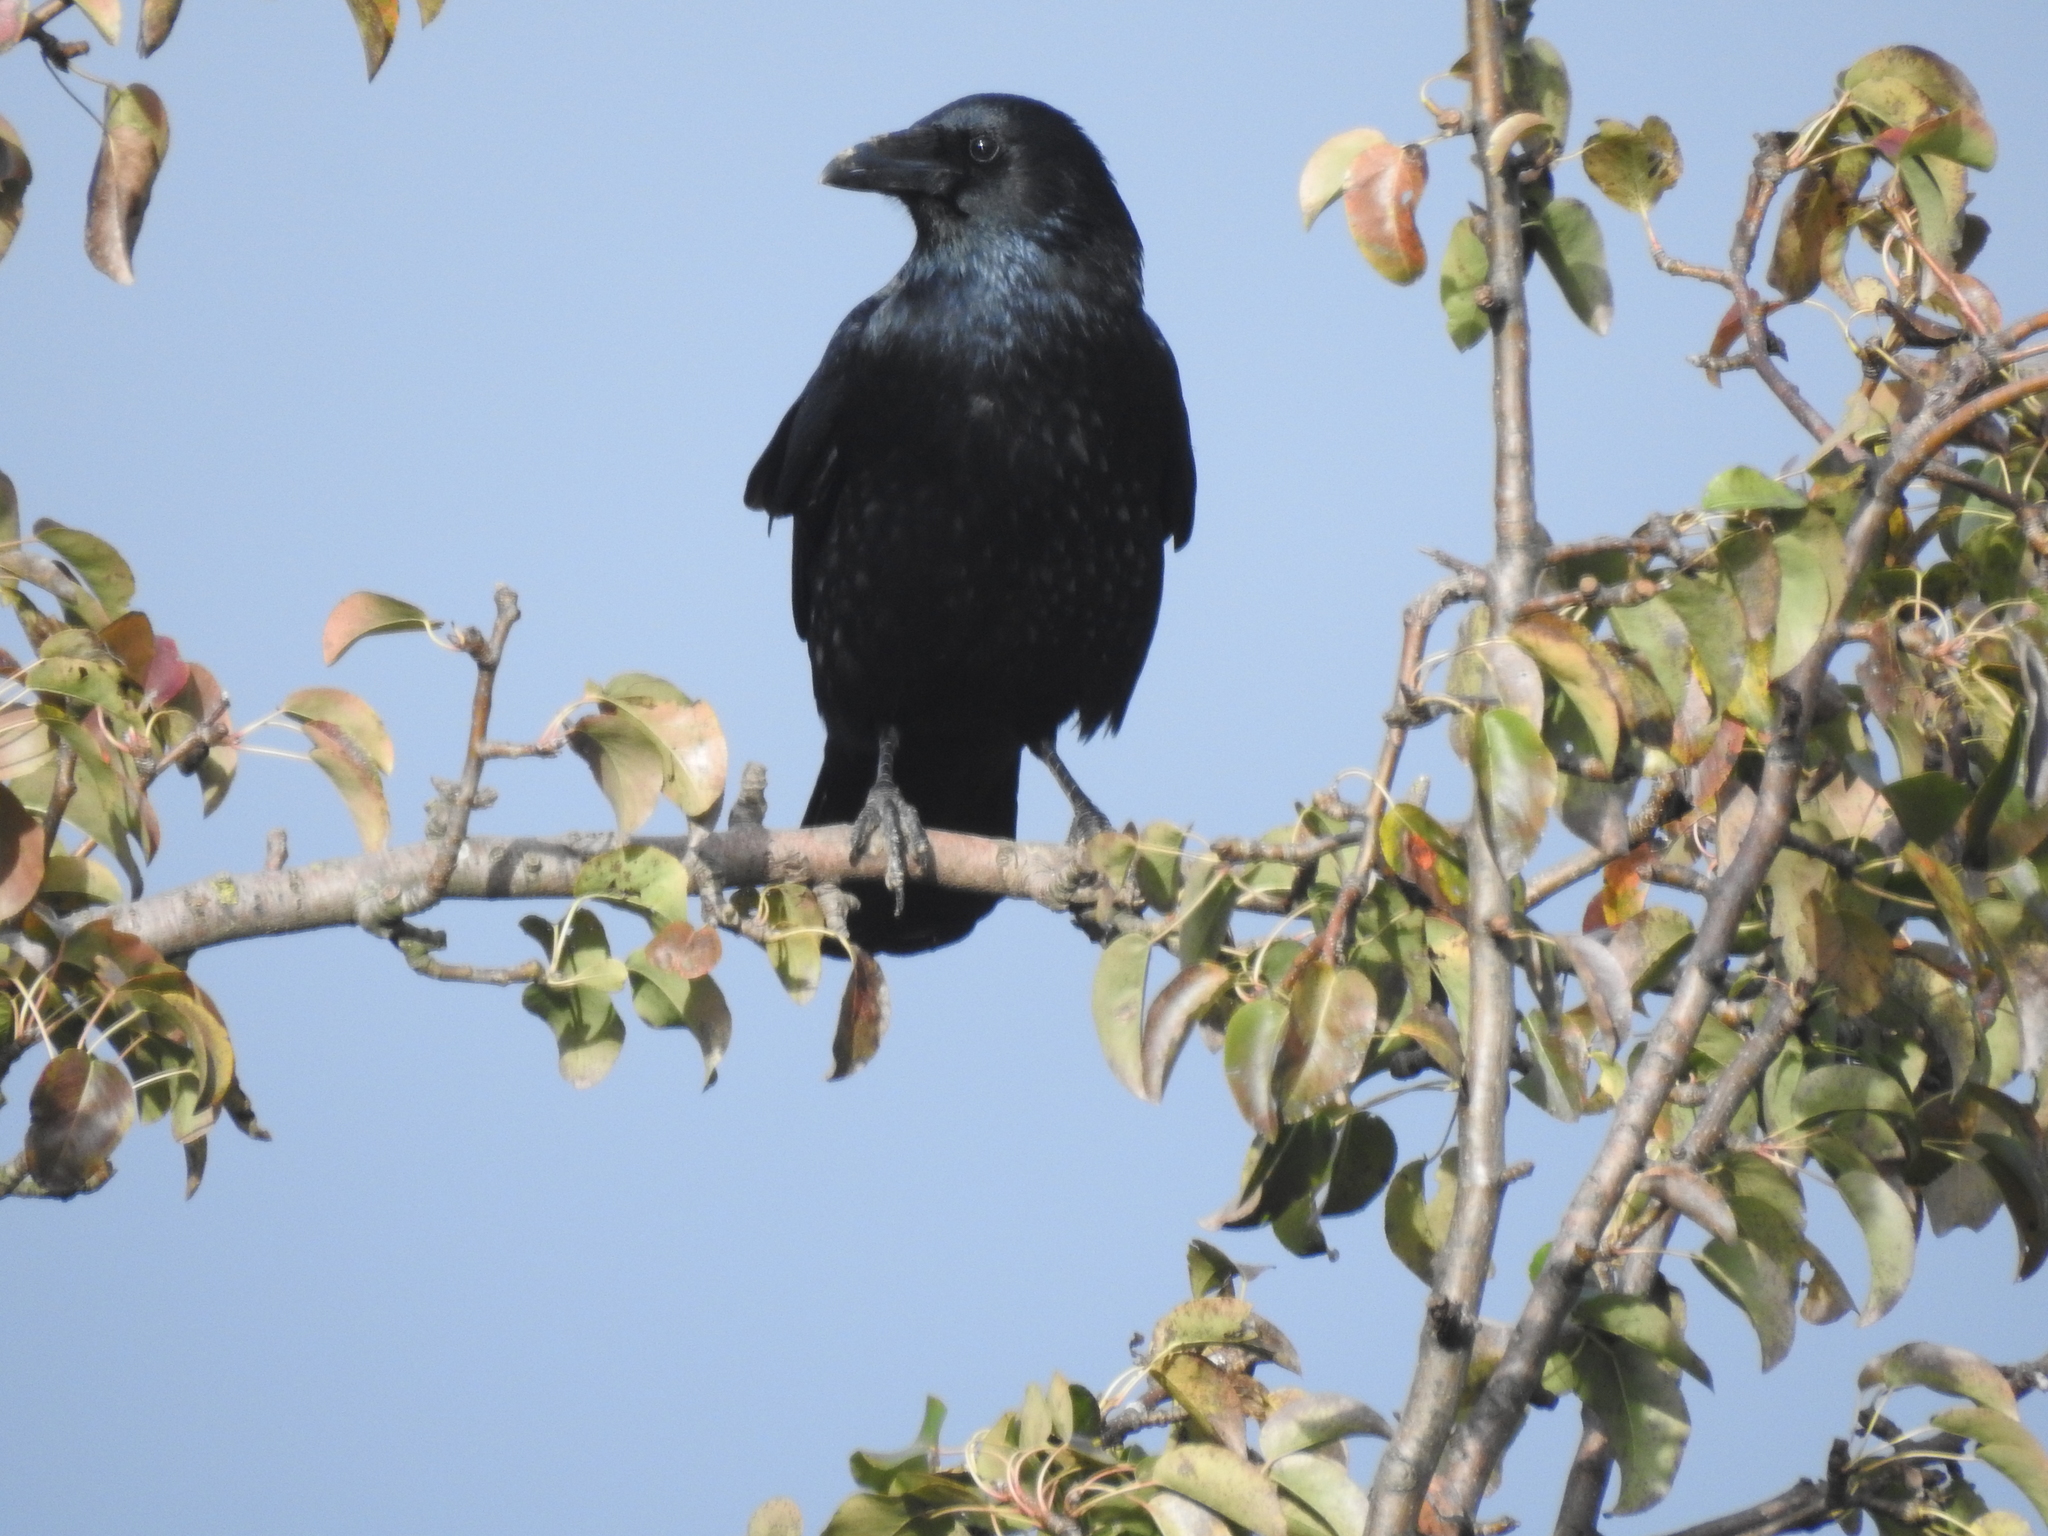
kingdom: Animalia
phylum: Chordata
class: Aves
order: Passeriformes
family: Corvidae
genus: Corvus
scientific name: Corvus corone
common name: Carrion crow
